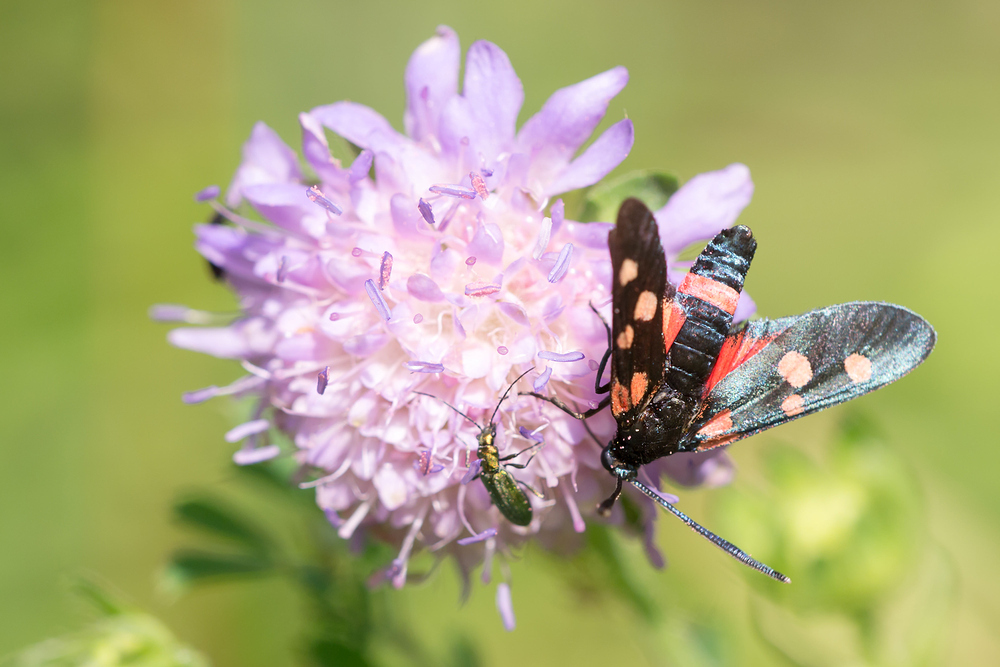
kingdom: Animalia
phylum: Arthropoda
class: Insecta
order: Lepidoptera
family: Zygaenidae
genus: Zygaena
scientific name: Zygaena ephialtes
